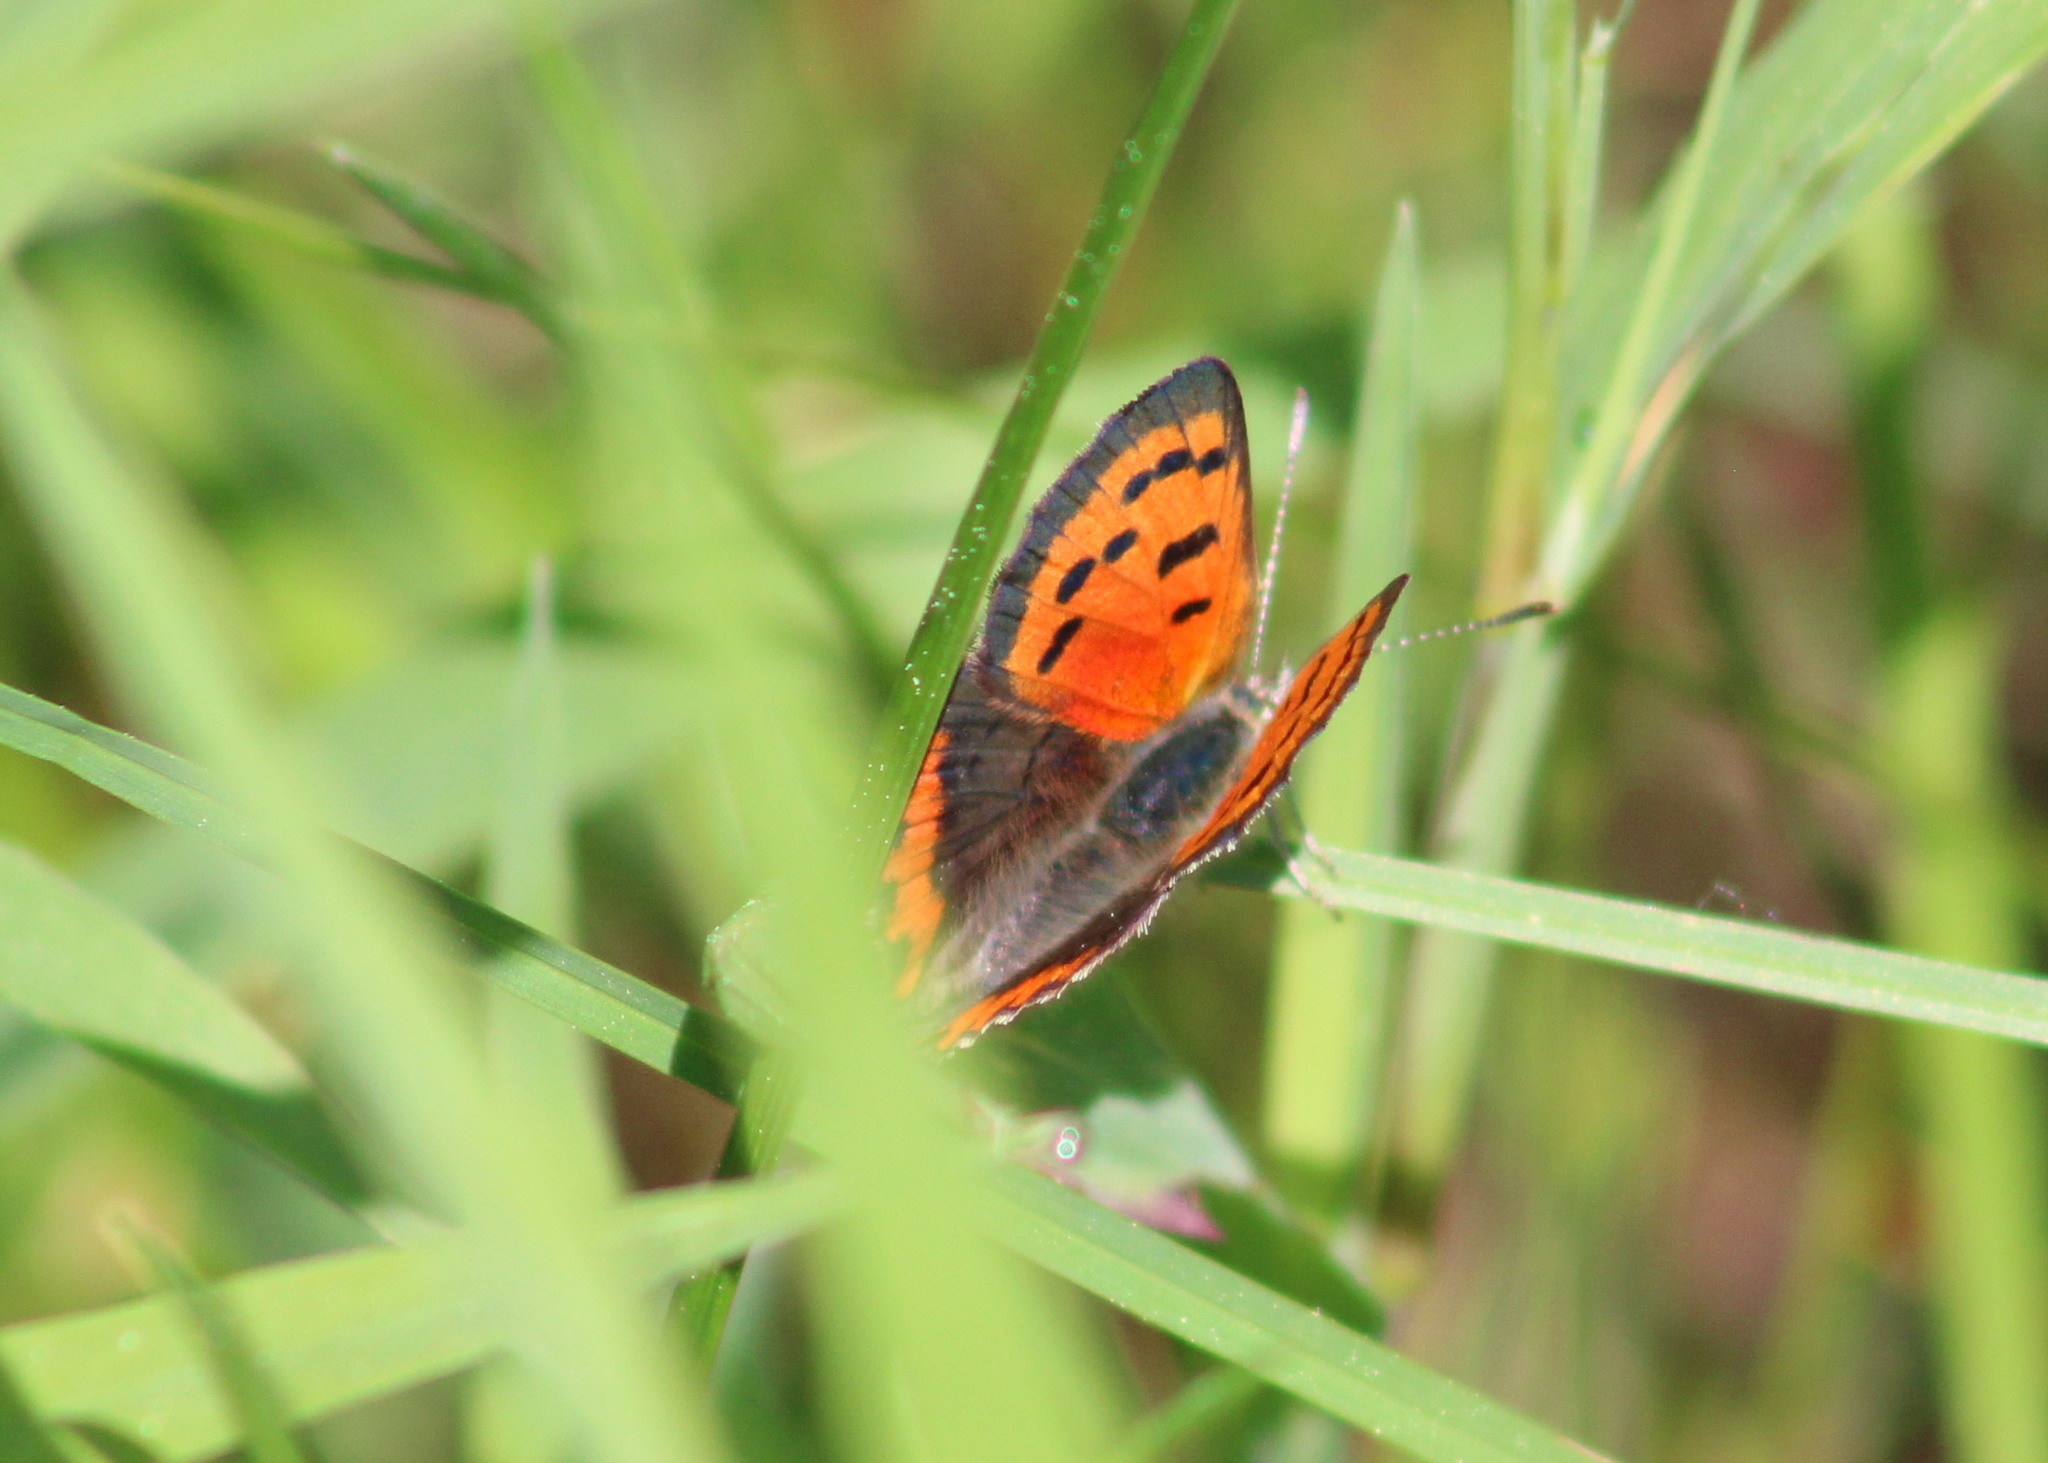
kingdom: Animalia
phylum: Arthropoda
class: Insecta
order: Lepidoptera
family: Lycaenidae
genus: Lycaena
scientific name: Lycaena hypophlaeas
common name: American copper
